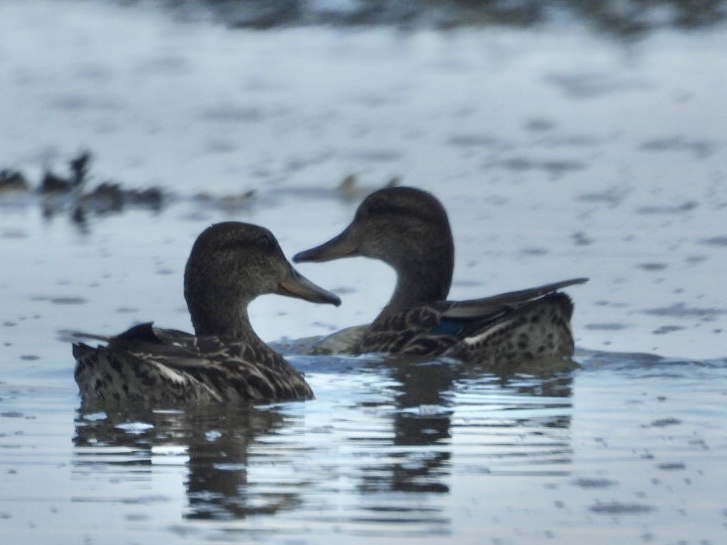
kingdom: Animalia
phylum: Chordata
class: Aves
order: Anseriformes
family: Anatidae
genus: Anas
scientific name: Anas crecca
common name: Eurasian teal
